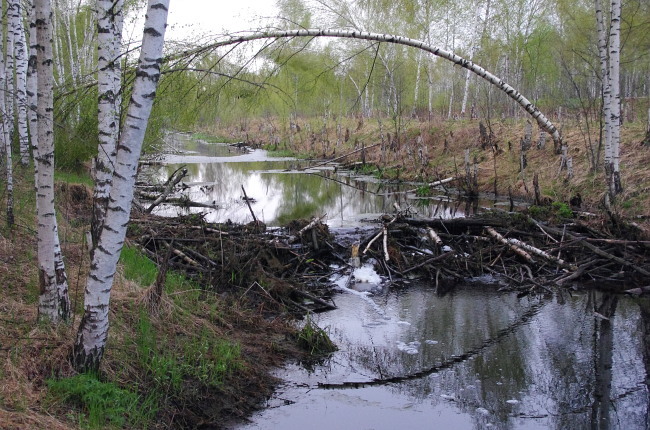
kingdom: Animalia
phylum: Chordata
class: Mammalia
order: Rodentia
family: Castoridae
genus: Castor
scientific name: Castor fiber
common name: Eurasian beaver
